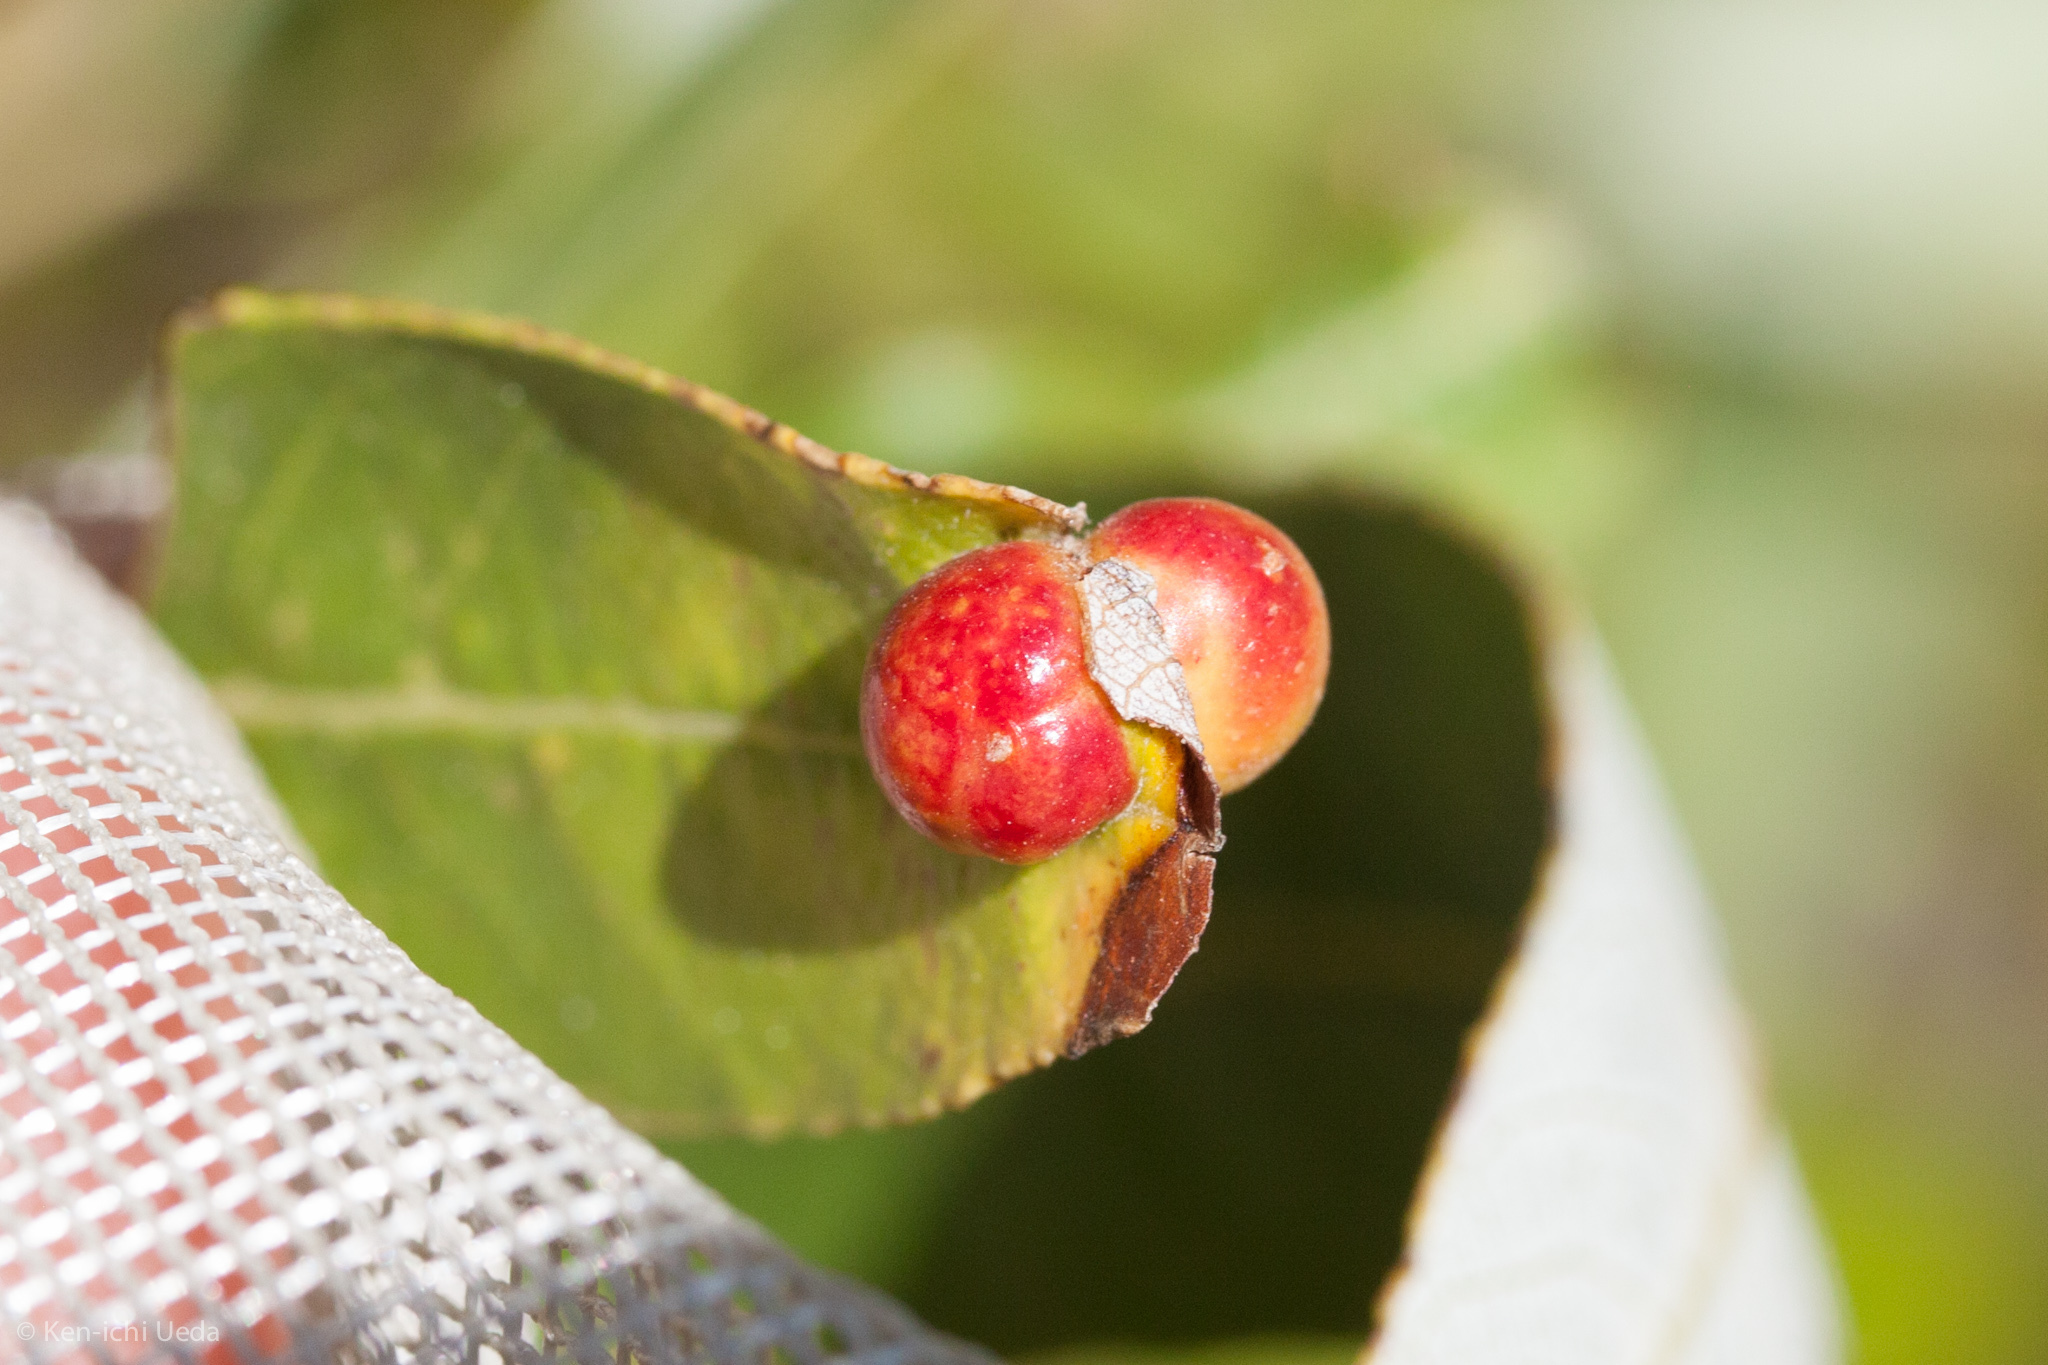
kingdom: Animalia
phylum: Arthropoda
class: Insecta
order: Hymenoptera
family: Tenthredinidae
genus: Euura
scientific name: Euura
